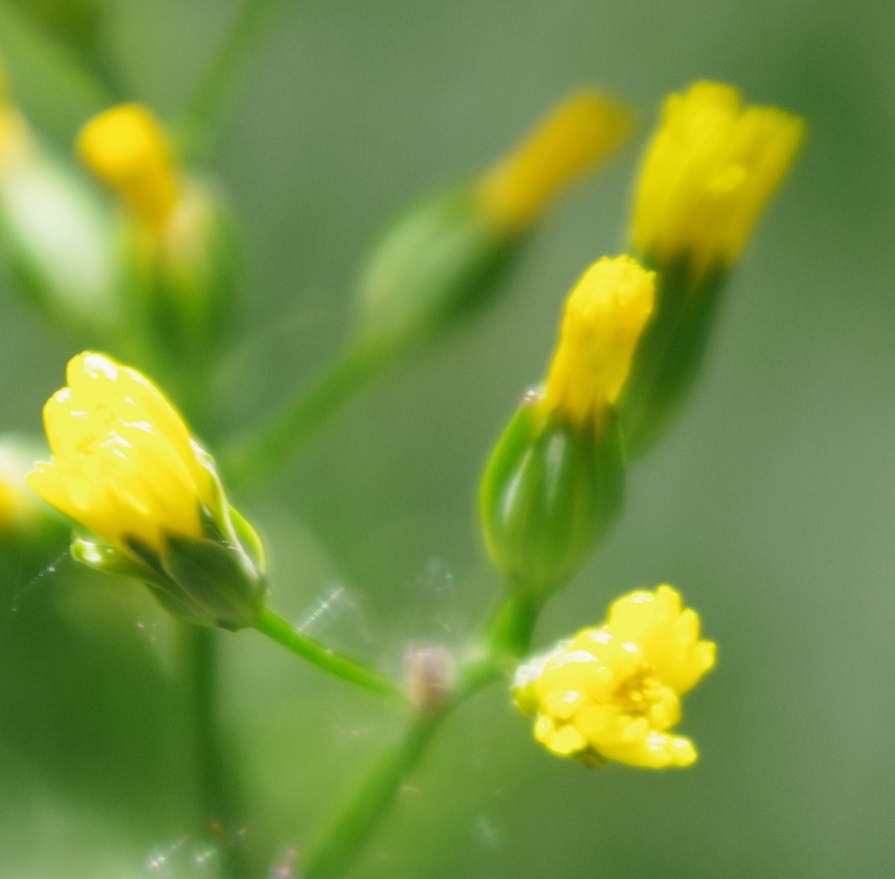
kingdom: Plantae
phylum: Tracheophyta
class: Magnoliopsida
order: Asterales
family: Asteraceae
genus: Lapsana
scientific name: Lapsana communis
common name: Nipplewort
